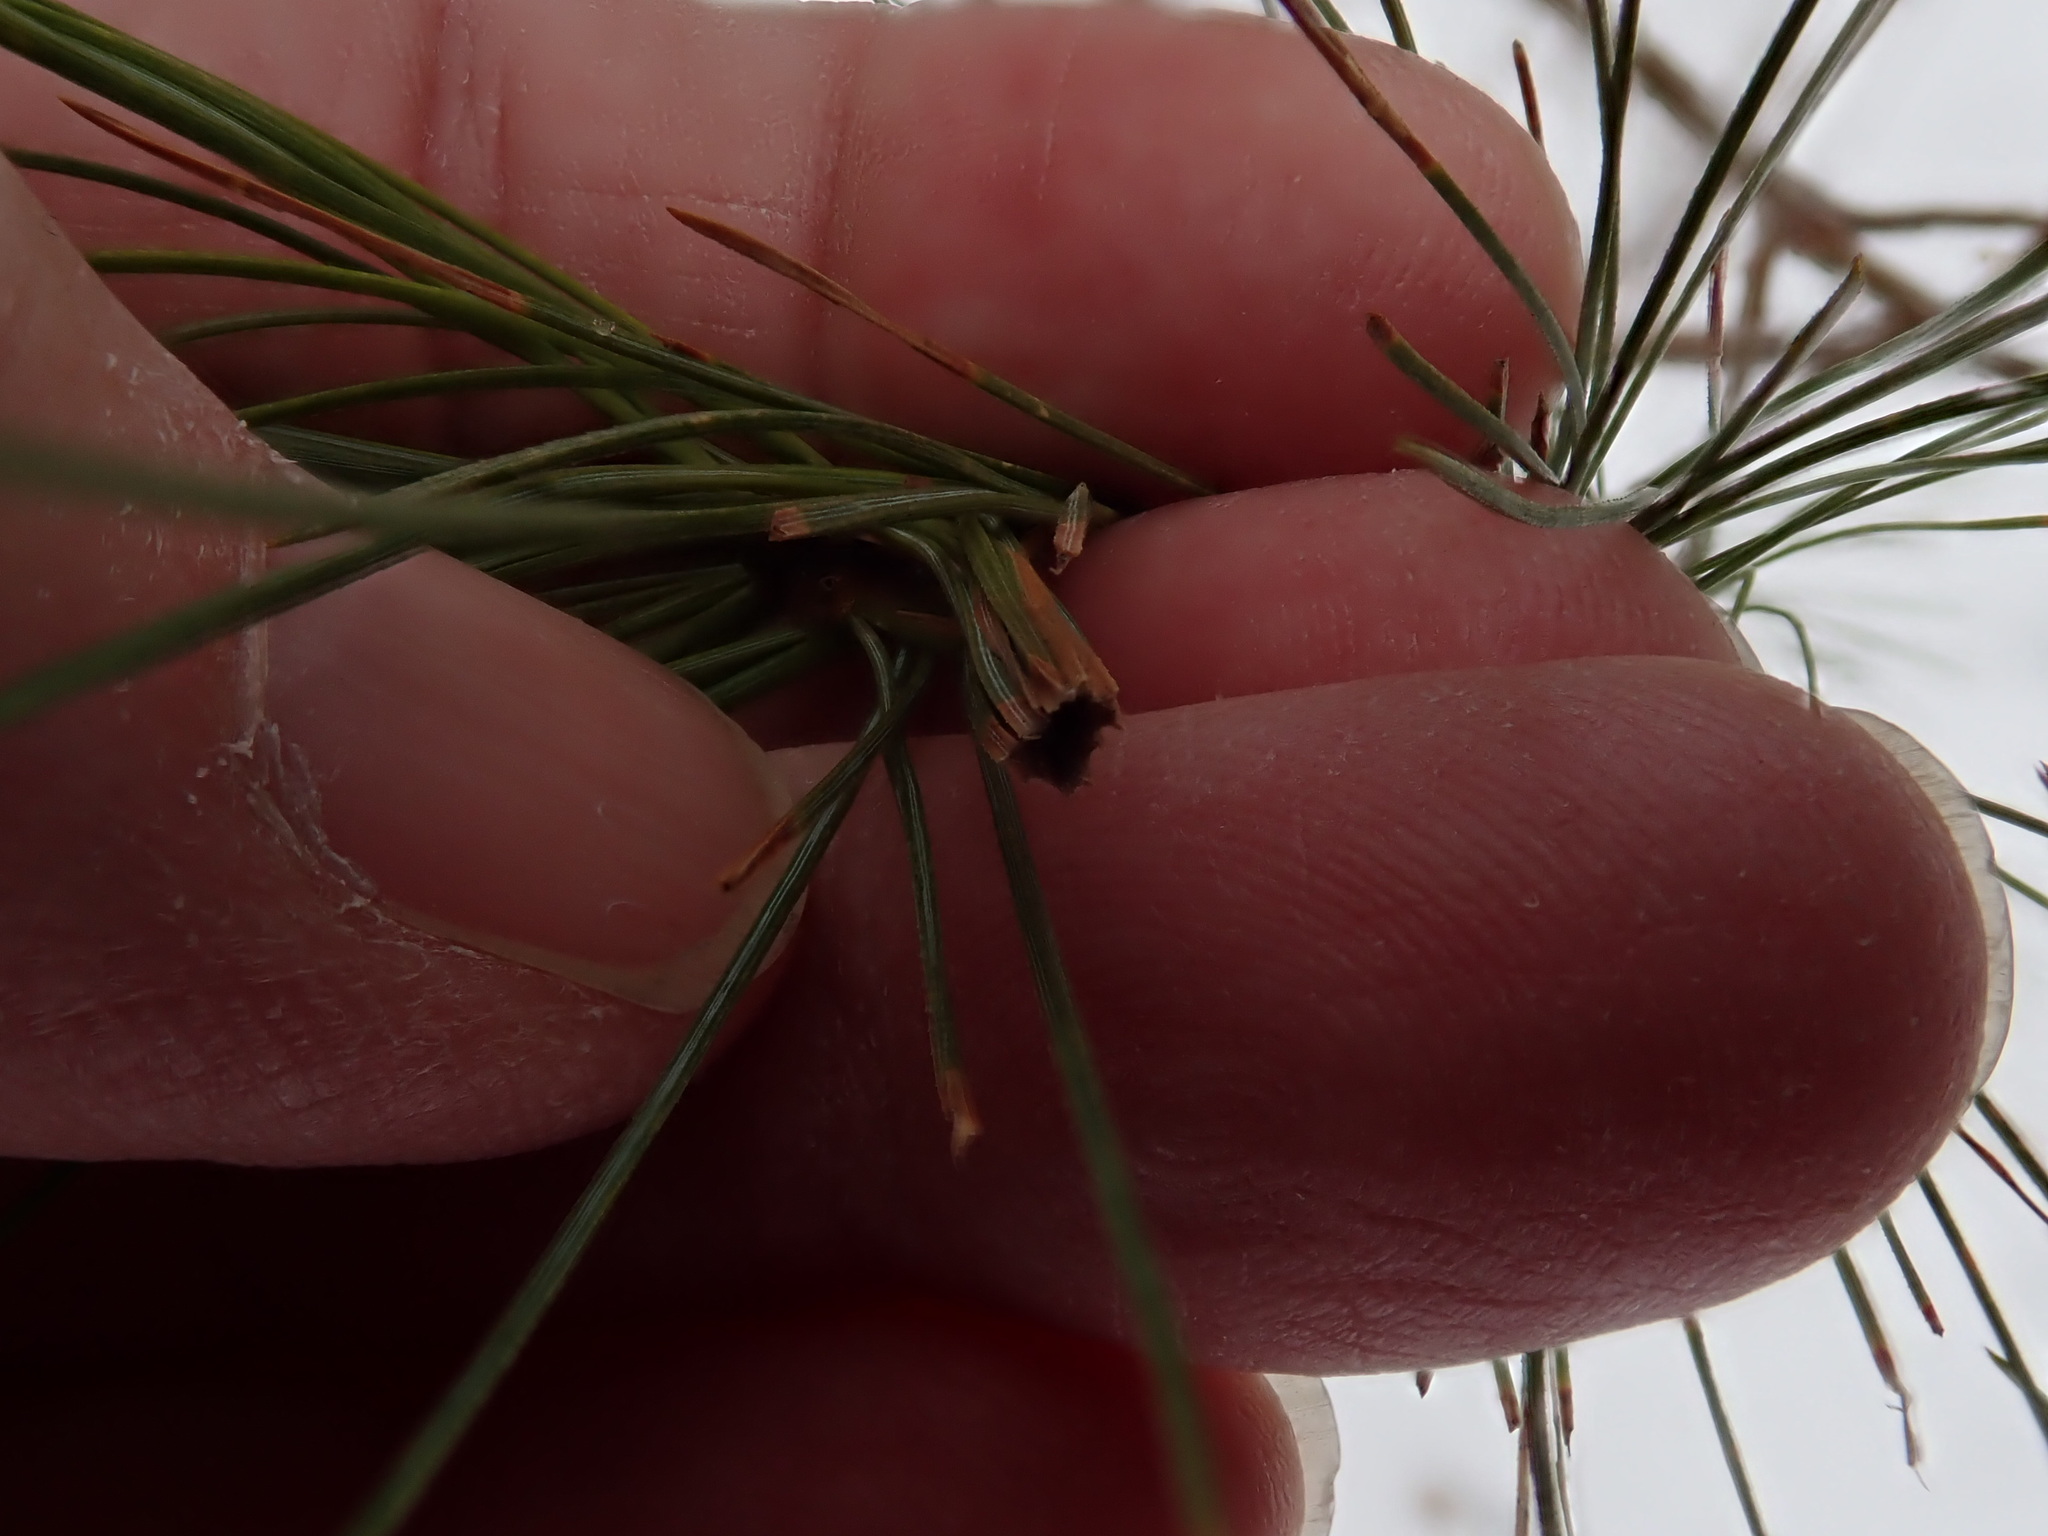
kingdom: Animalia
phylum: Arthropoda
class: Insecta
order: Lepidoptera
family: Tortricidae
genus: Argyrotaenia
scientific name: Argyrotaenia pinatubana
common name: Pine tube moth
